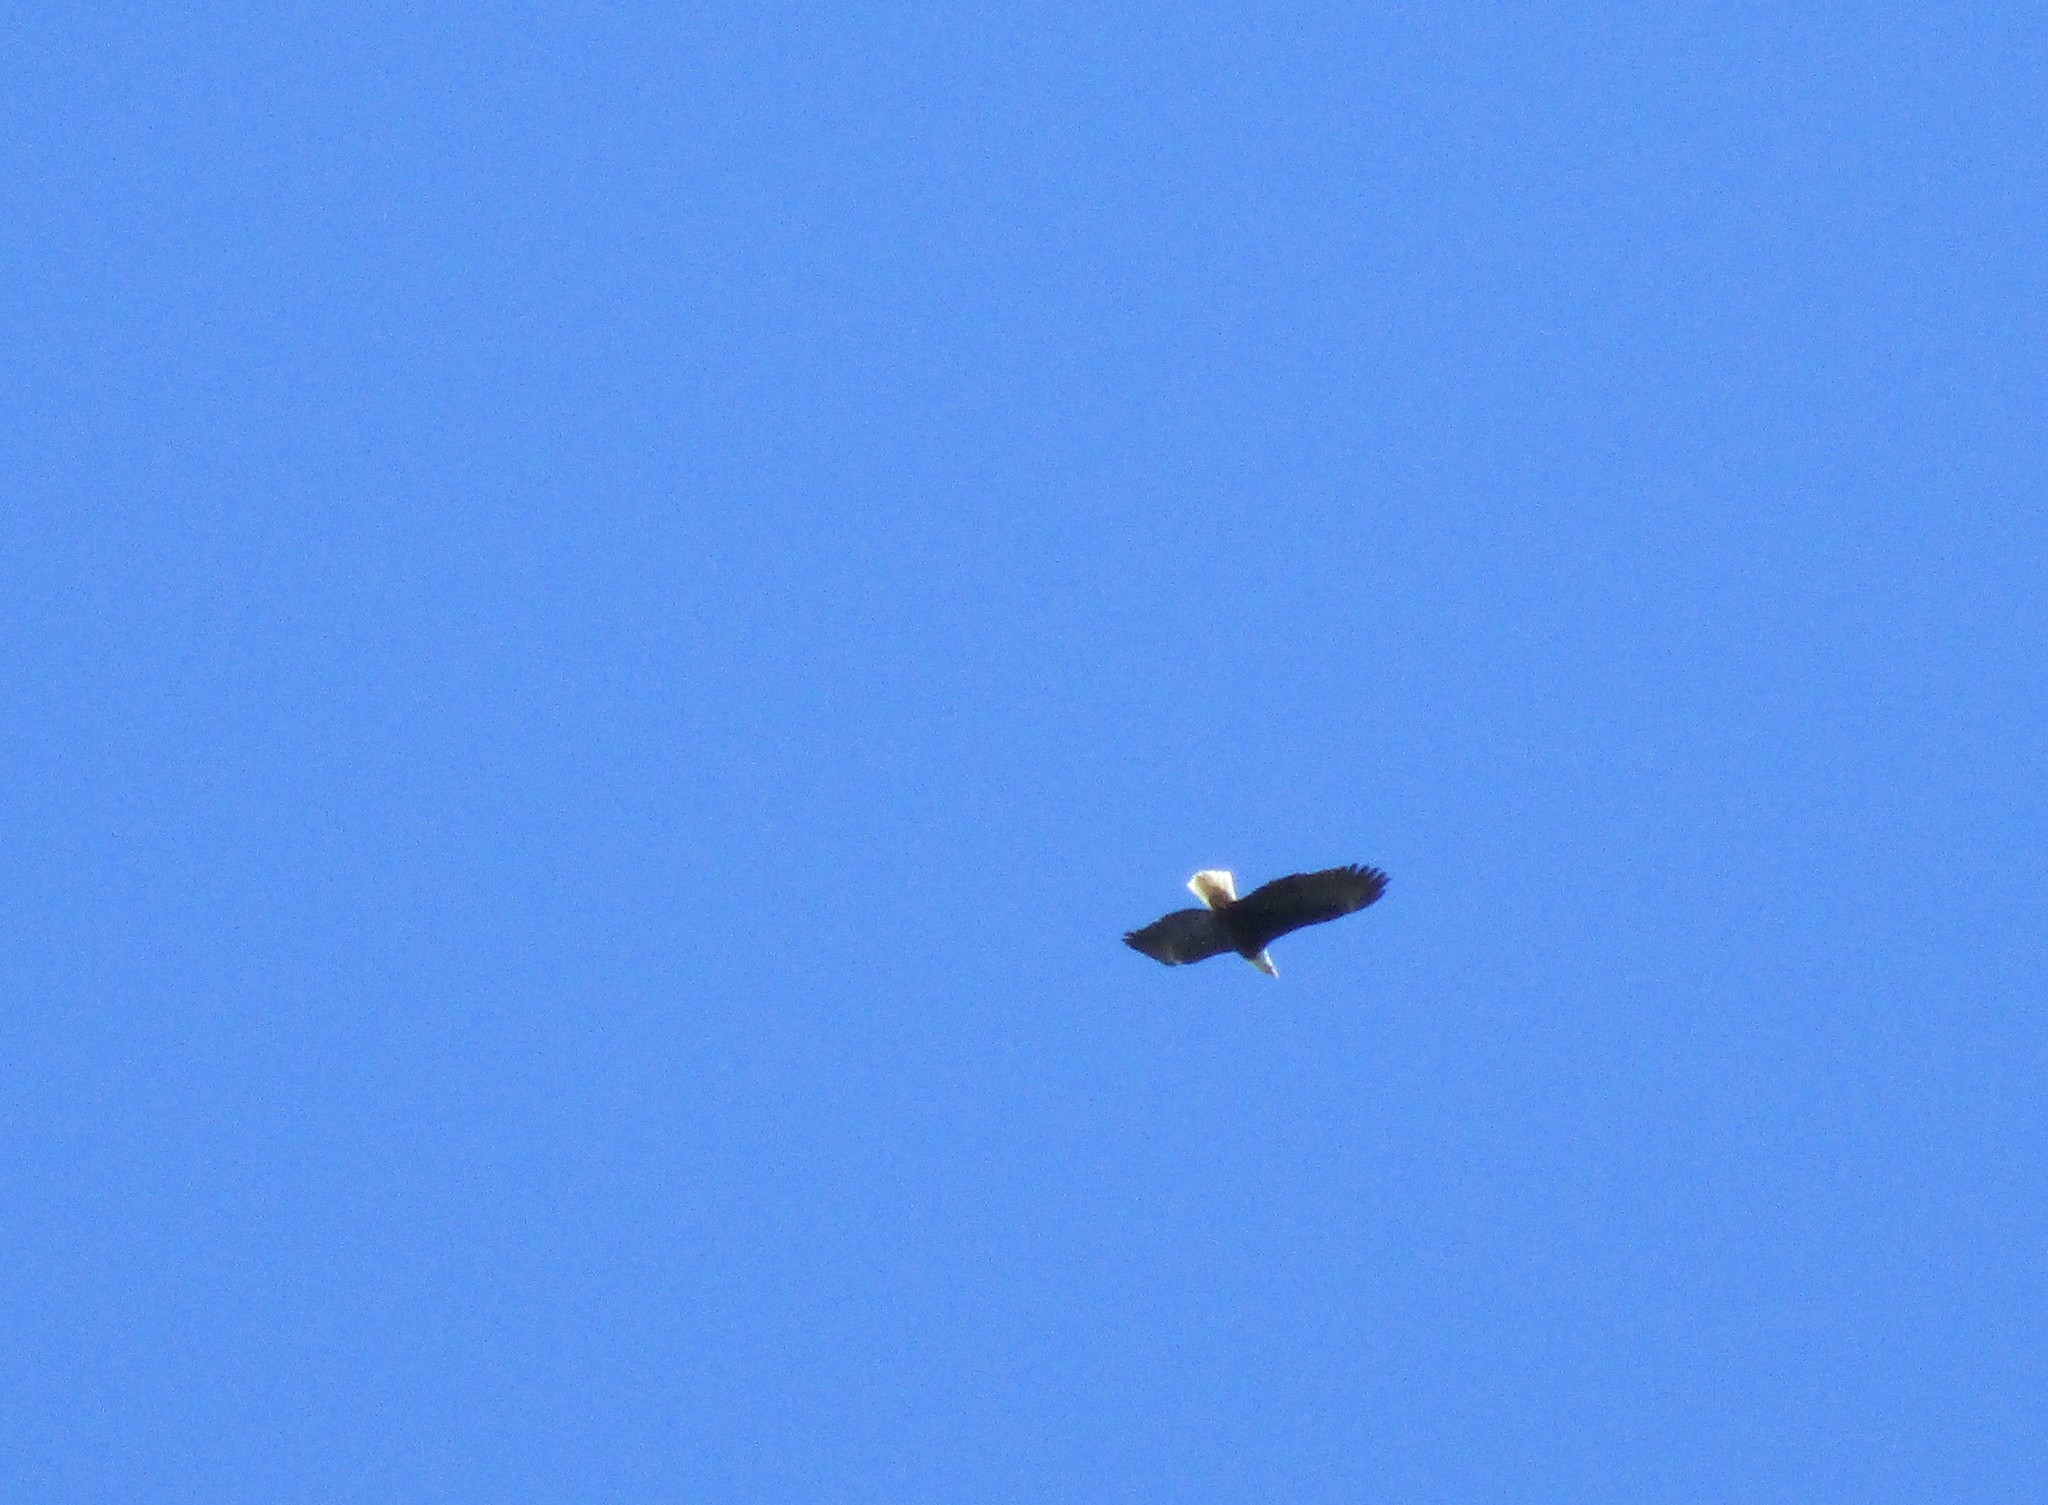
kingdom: Animalia
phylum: Chordata
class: Aves
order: Accipitriformes
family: Accipitridae
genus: Haliaeetus
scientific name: Haliaeetus leucocephalus
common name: Bald eagle
